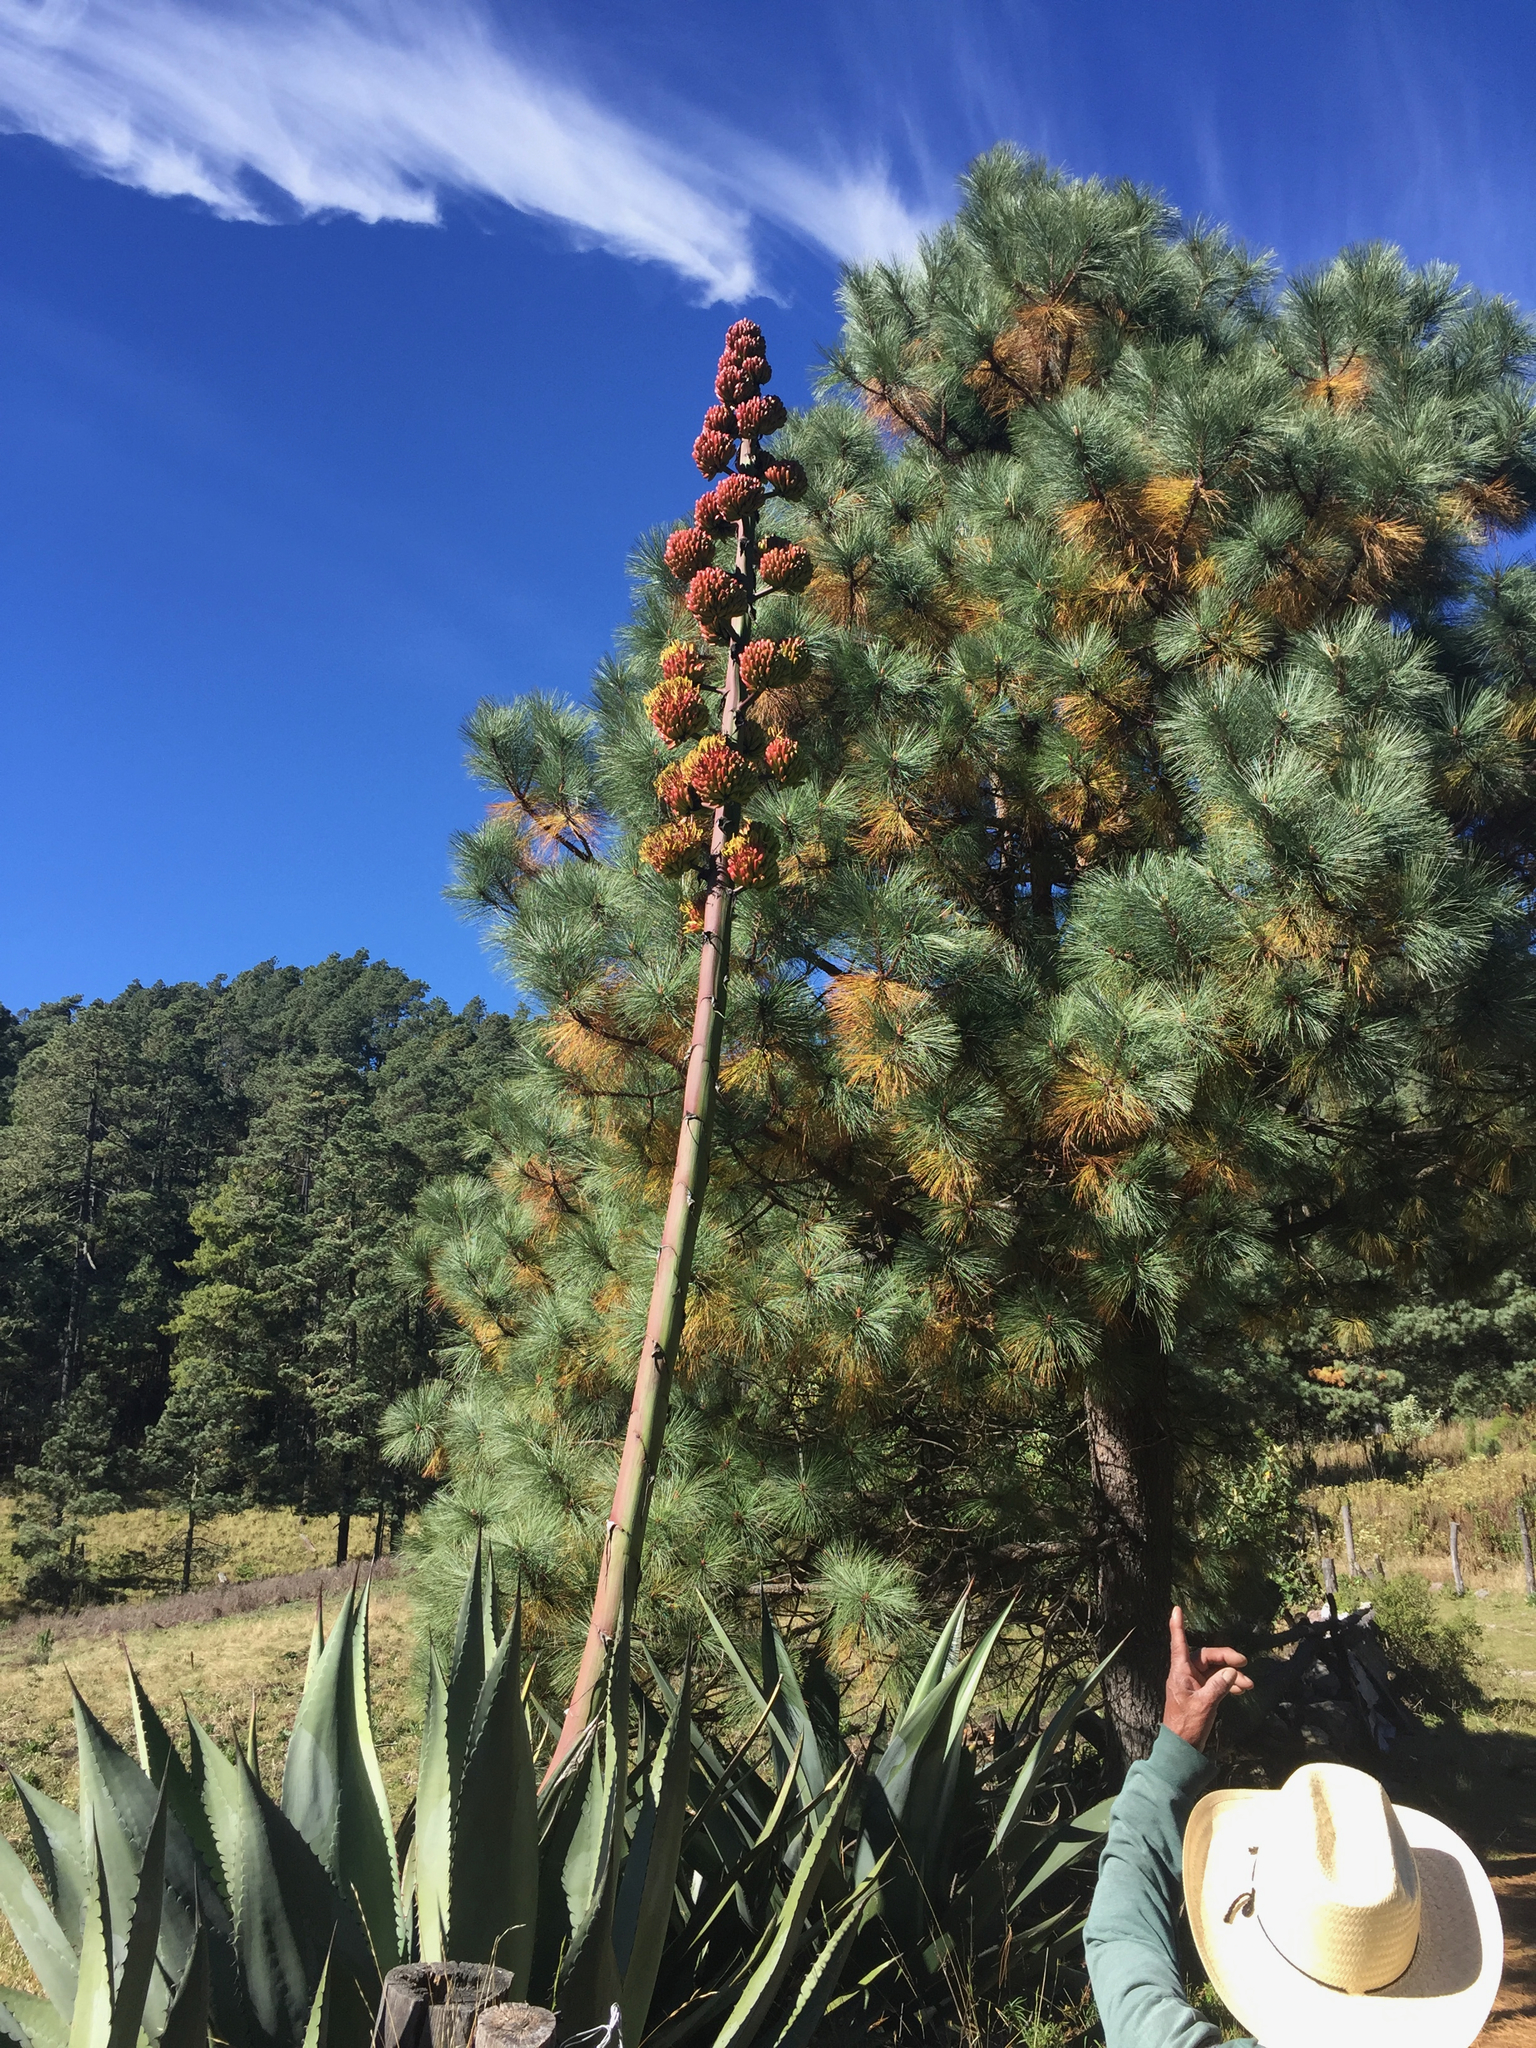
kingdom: Plantae
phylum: Tracheophyta
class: Liliopsida
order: Asparagales
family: Asparagaceae
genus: Agave
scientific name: Agave atrovirens
